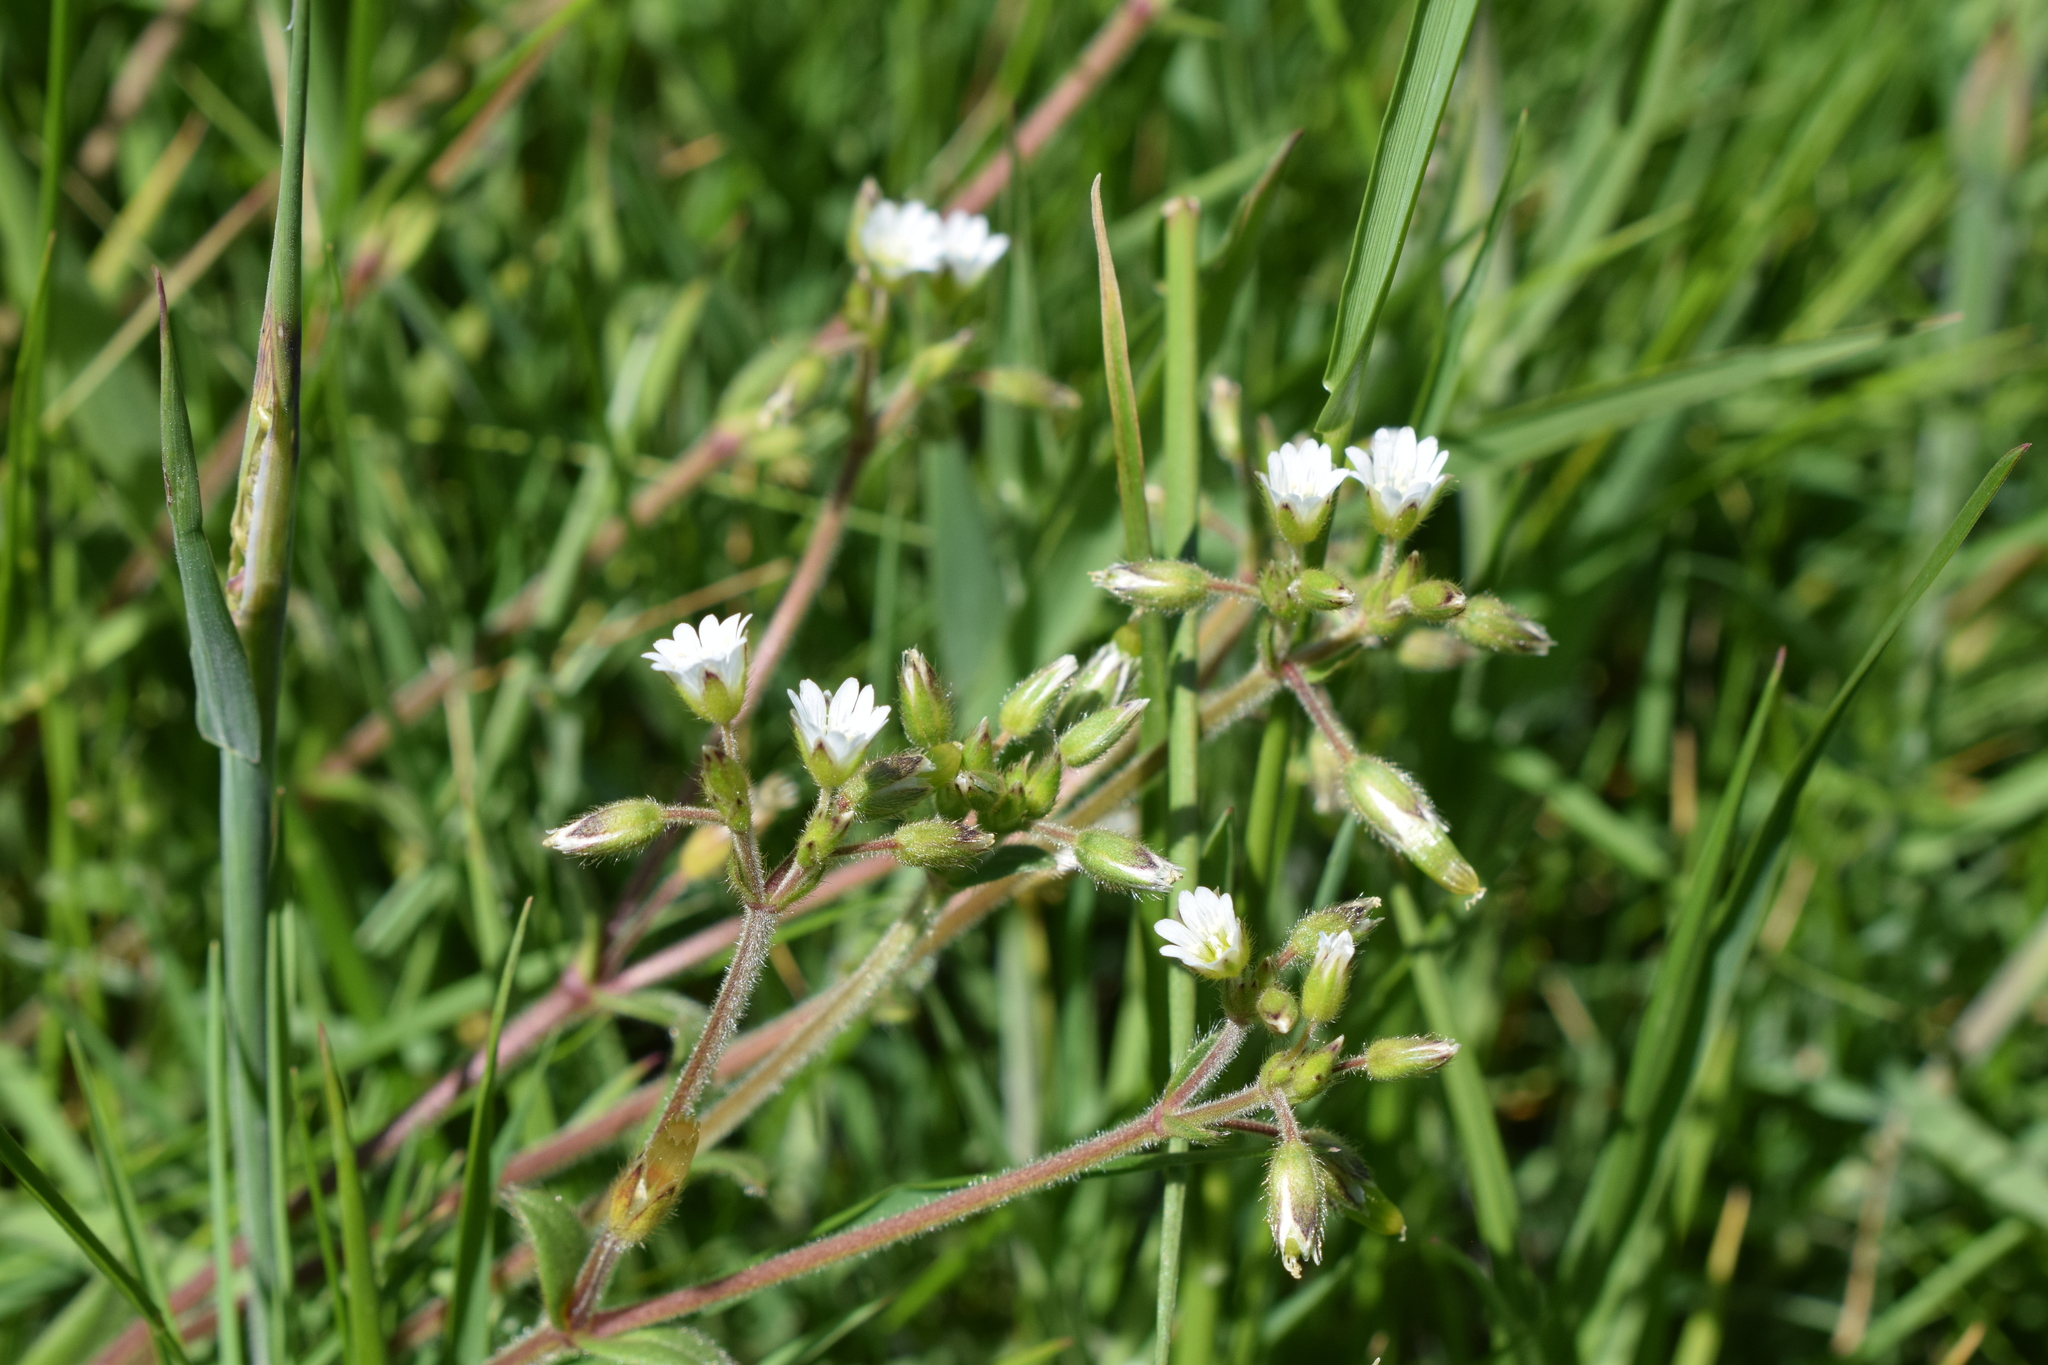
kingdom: Plantae
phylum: Tracheophyta
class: Magnoliopsida
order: Caryophyllales
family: Caryophyllaceae
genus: Cerastium
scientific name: Cerastium fontanum
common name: Common mouse-ear
